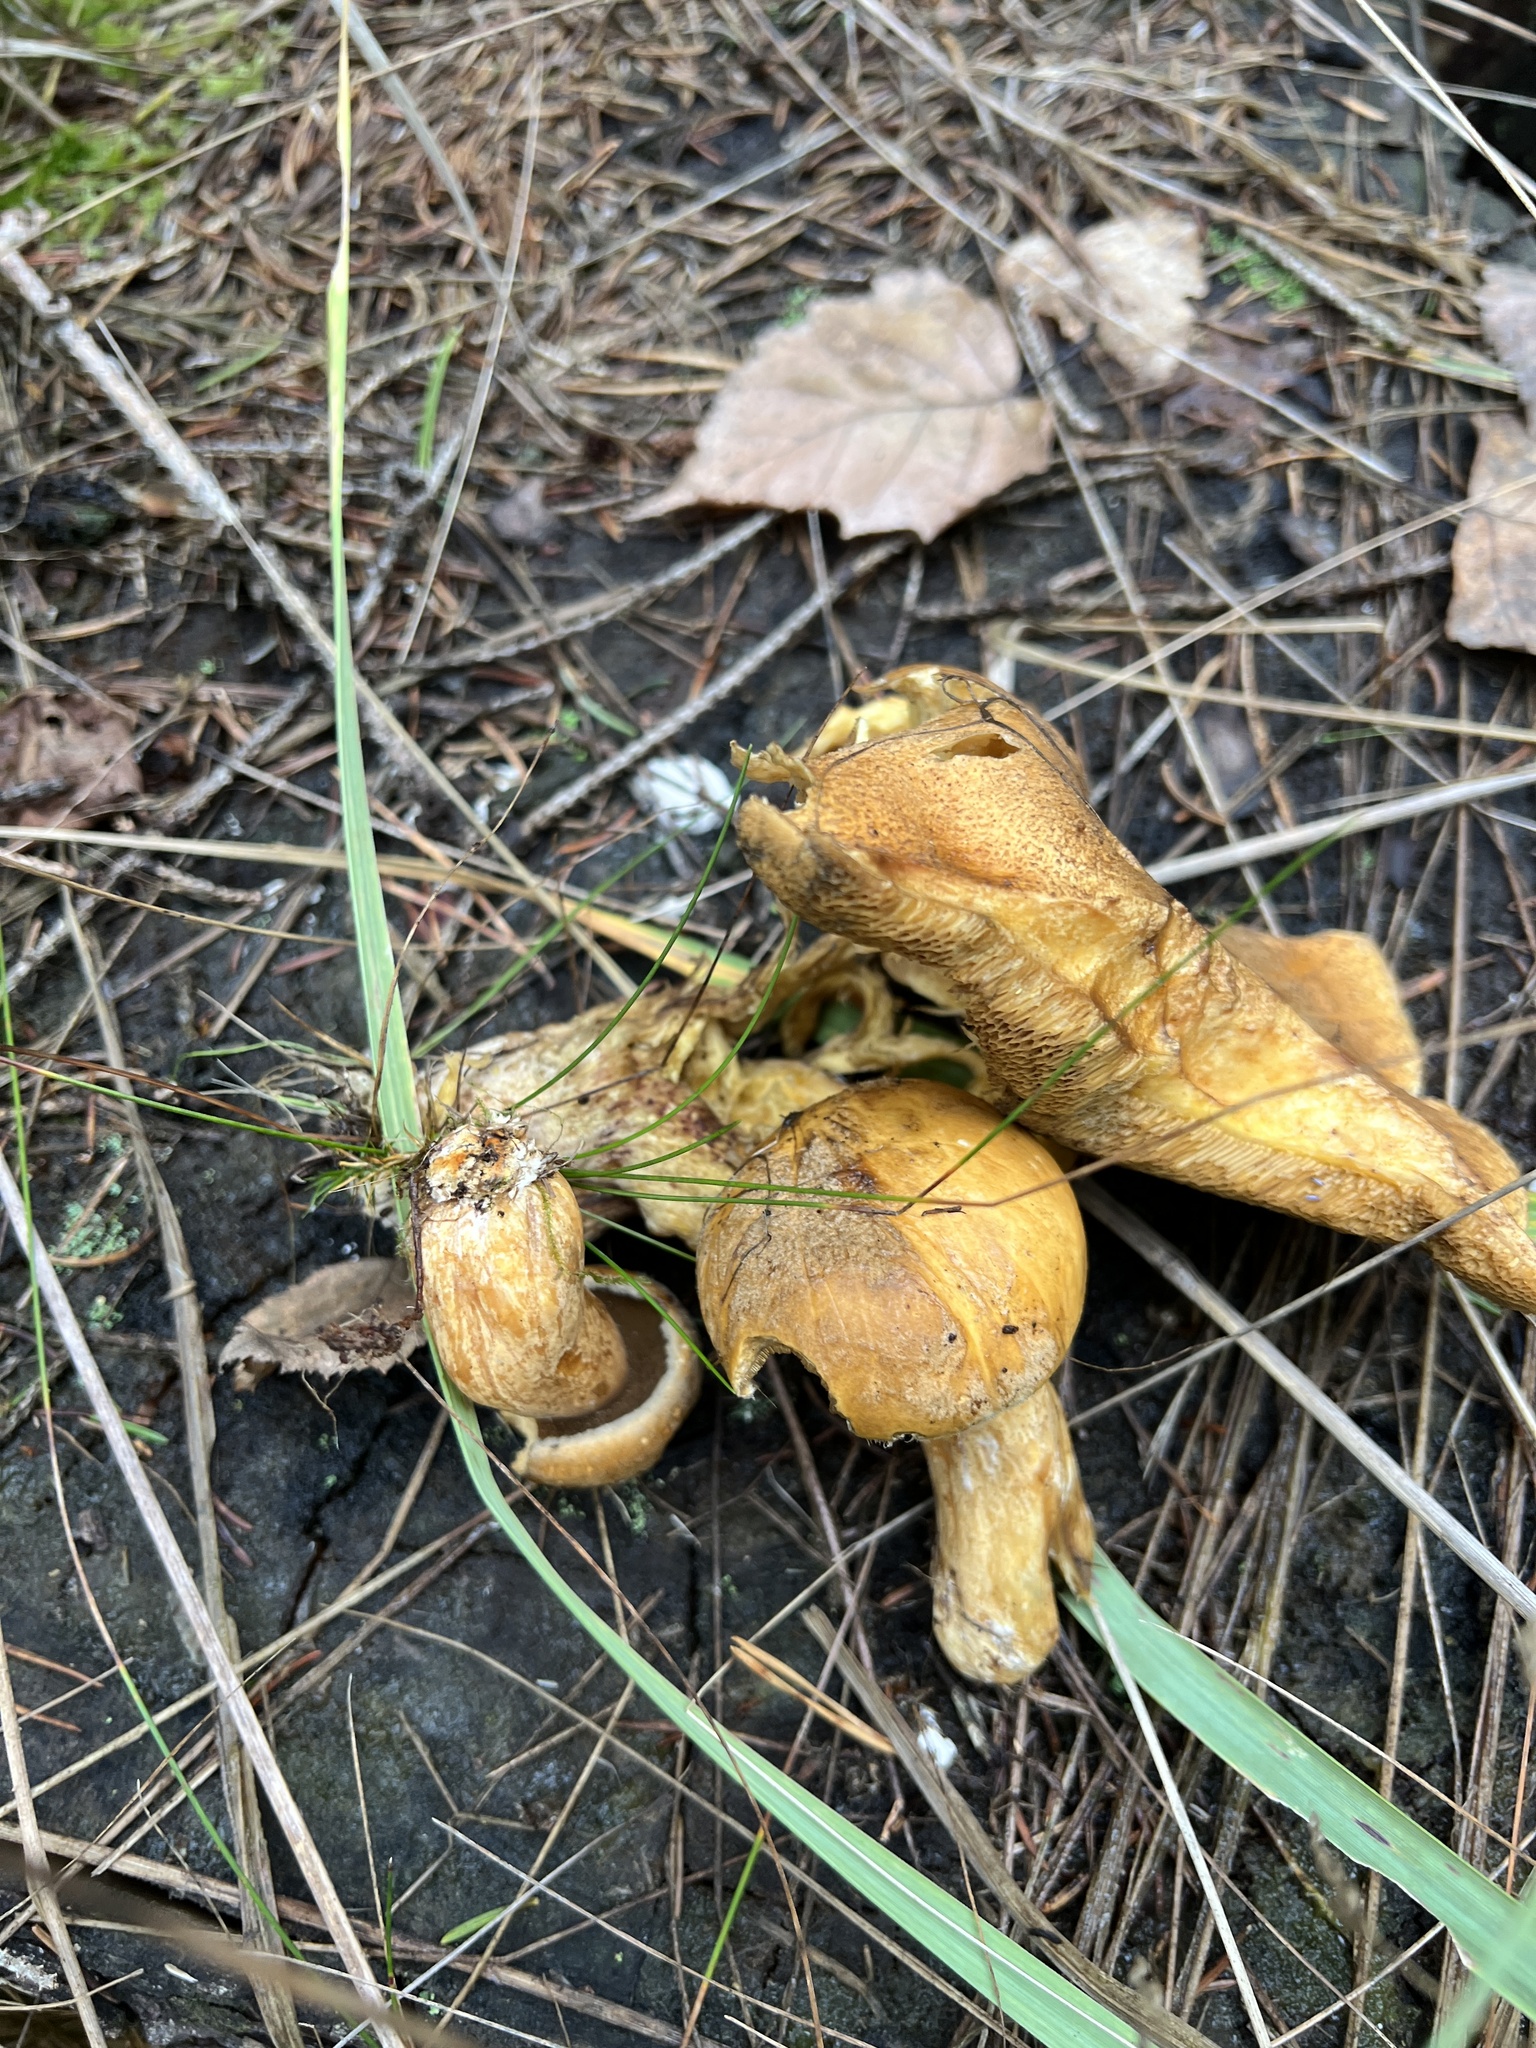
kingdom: Fungi
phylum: Basidiomycota
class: Agaricomycetes
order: Boletales
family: Suillaceae
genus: Suillus
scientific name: Suillus variegatus
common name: Velvet bolete
